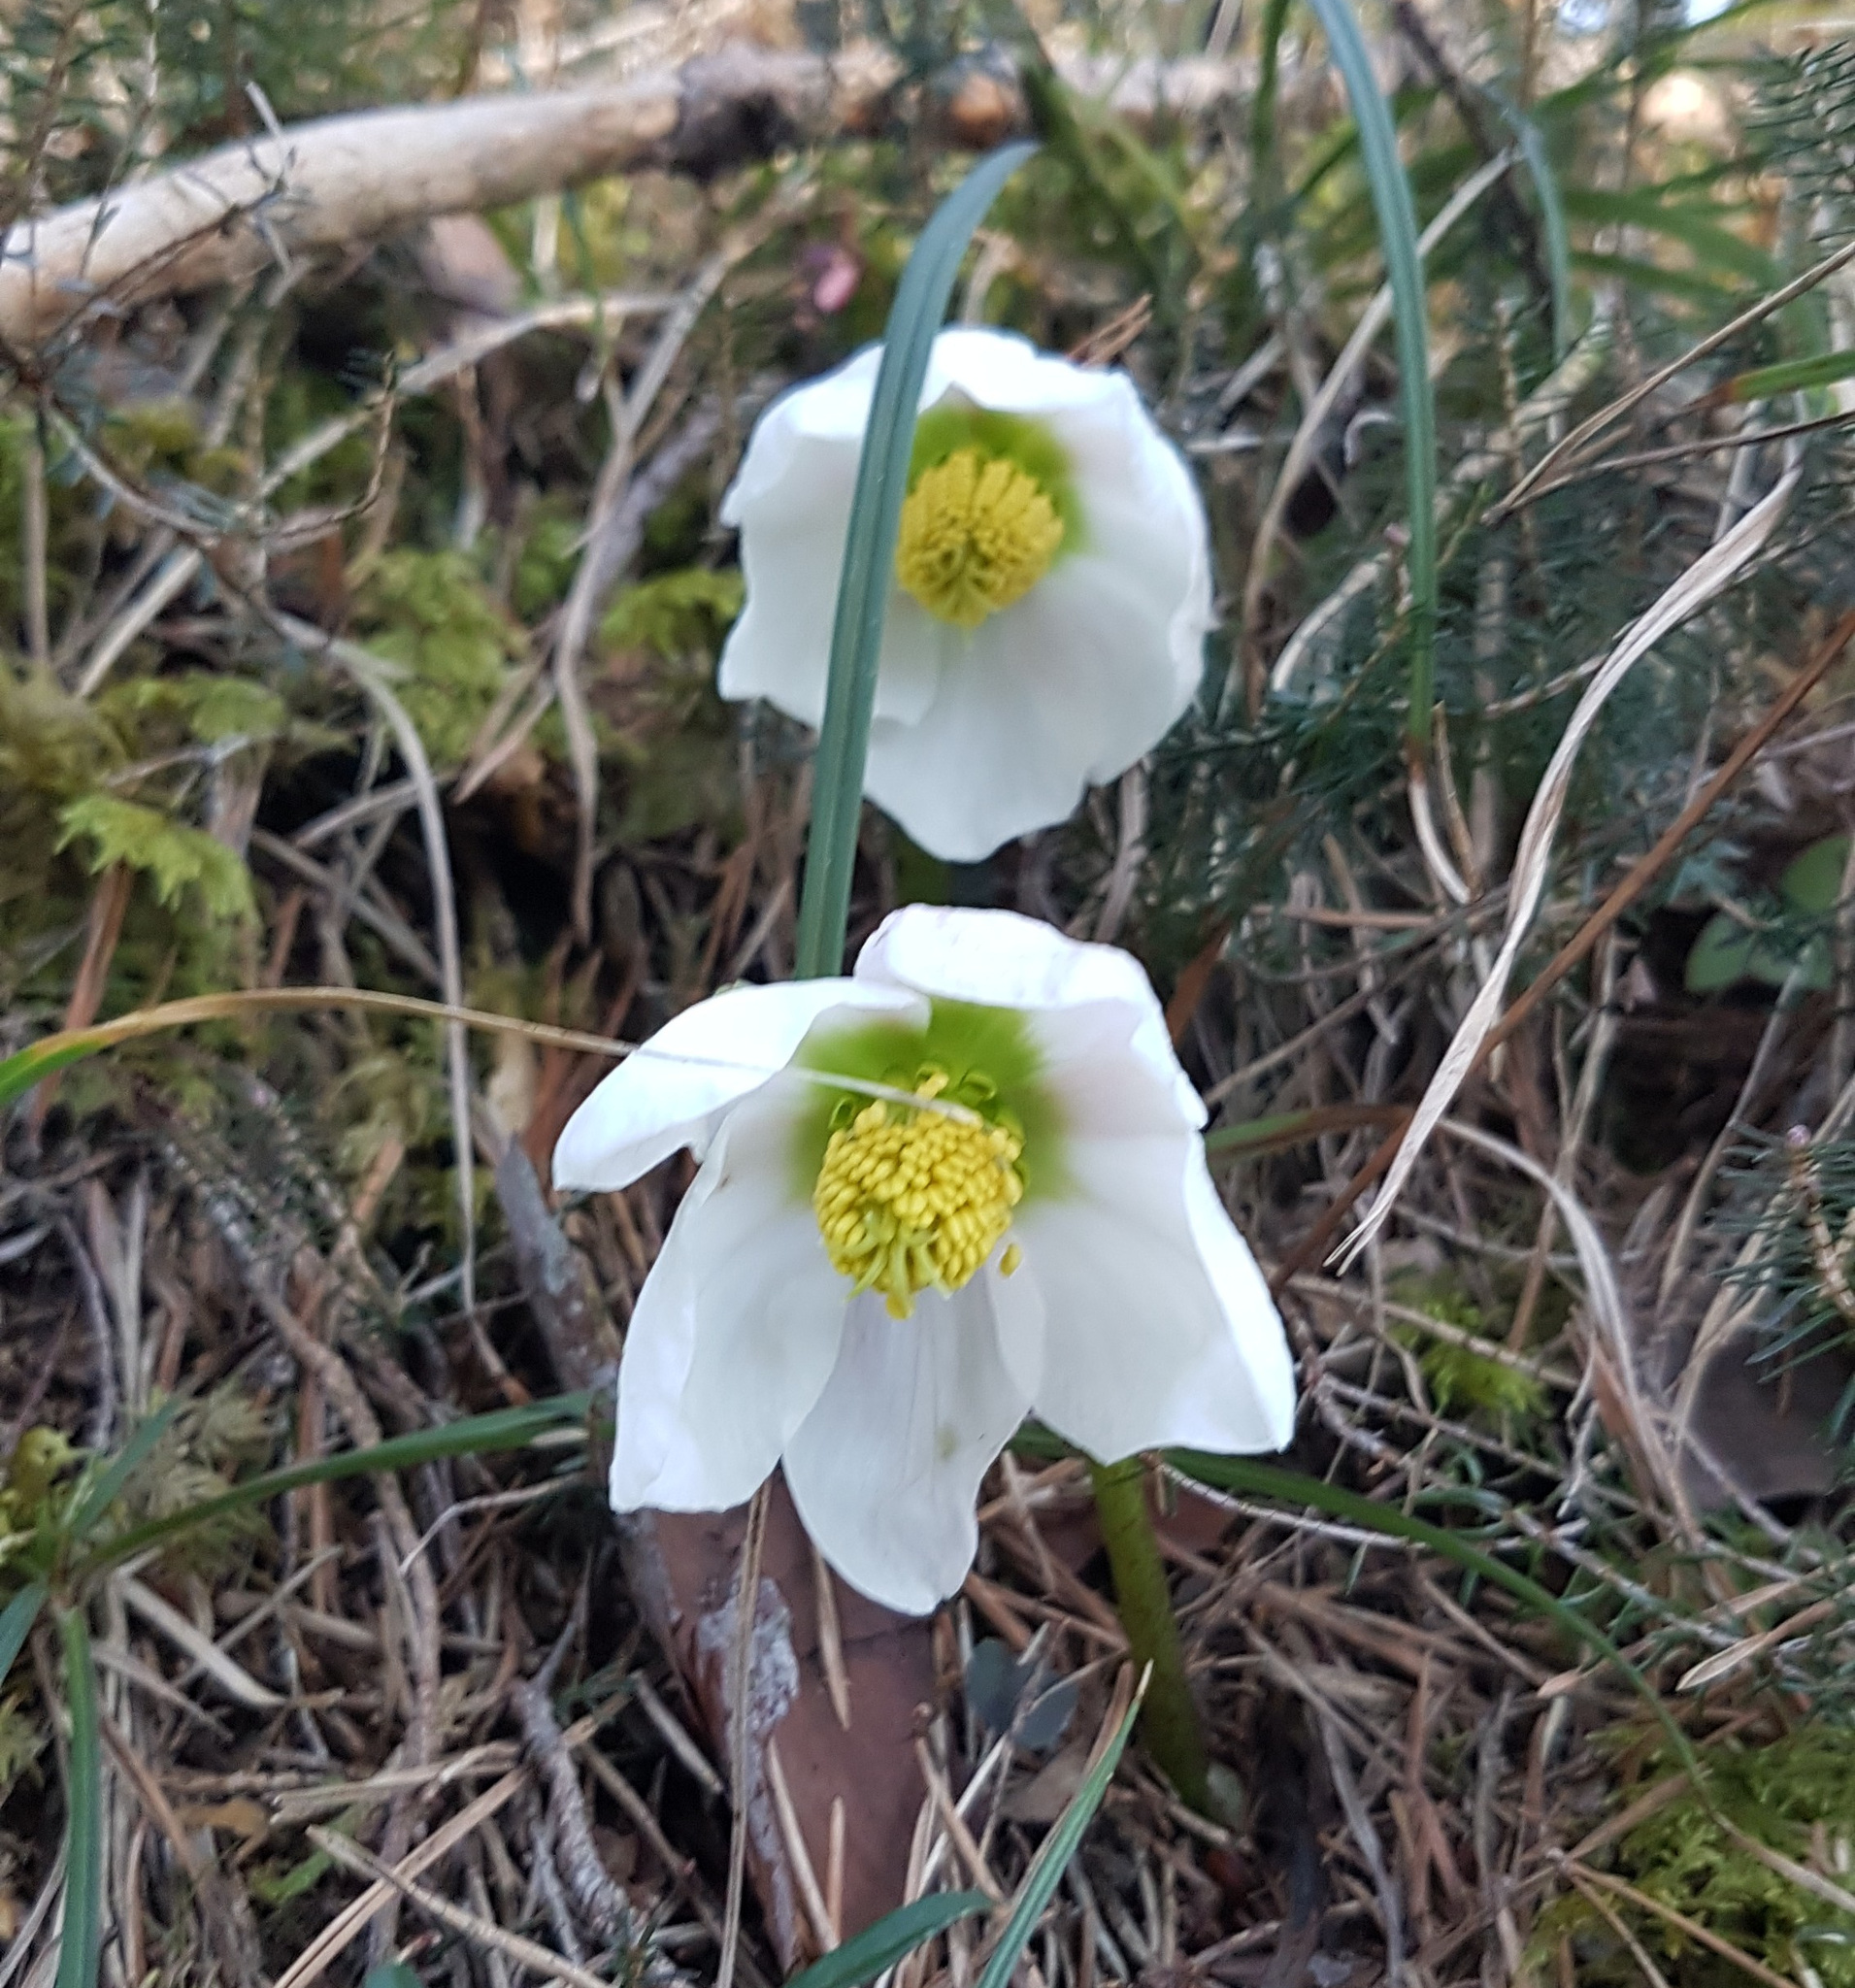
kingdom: Plantae
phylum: Tracheophyta
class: Magnoliopsida
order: Ranunculales
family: Ranunculaceae
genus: Helleborus
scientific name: Helleborus niger
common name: Black hellebore
